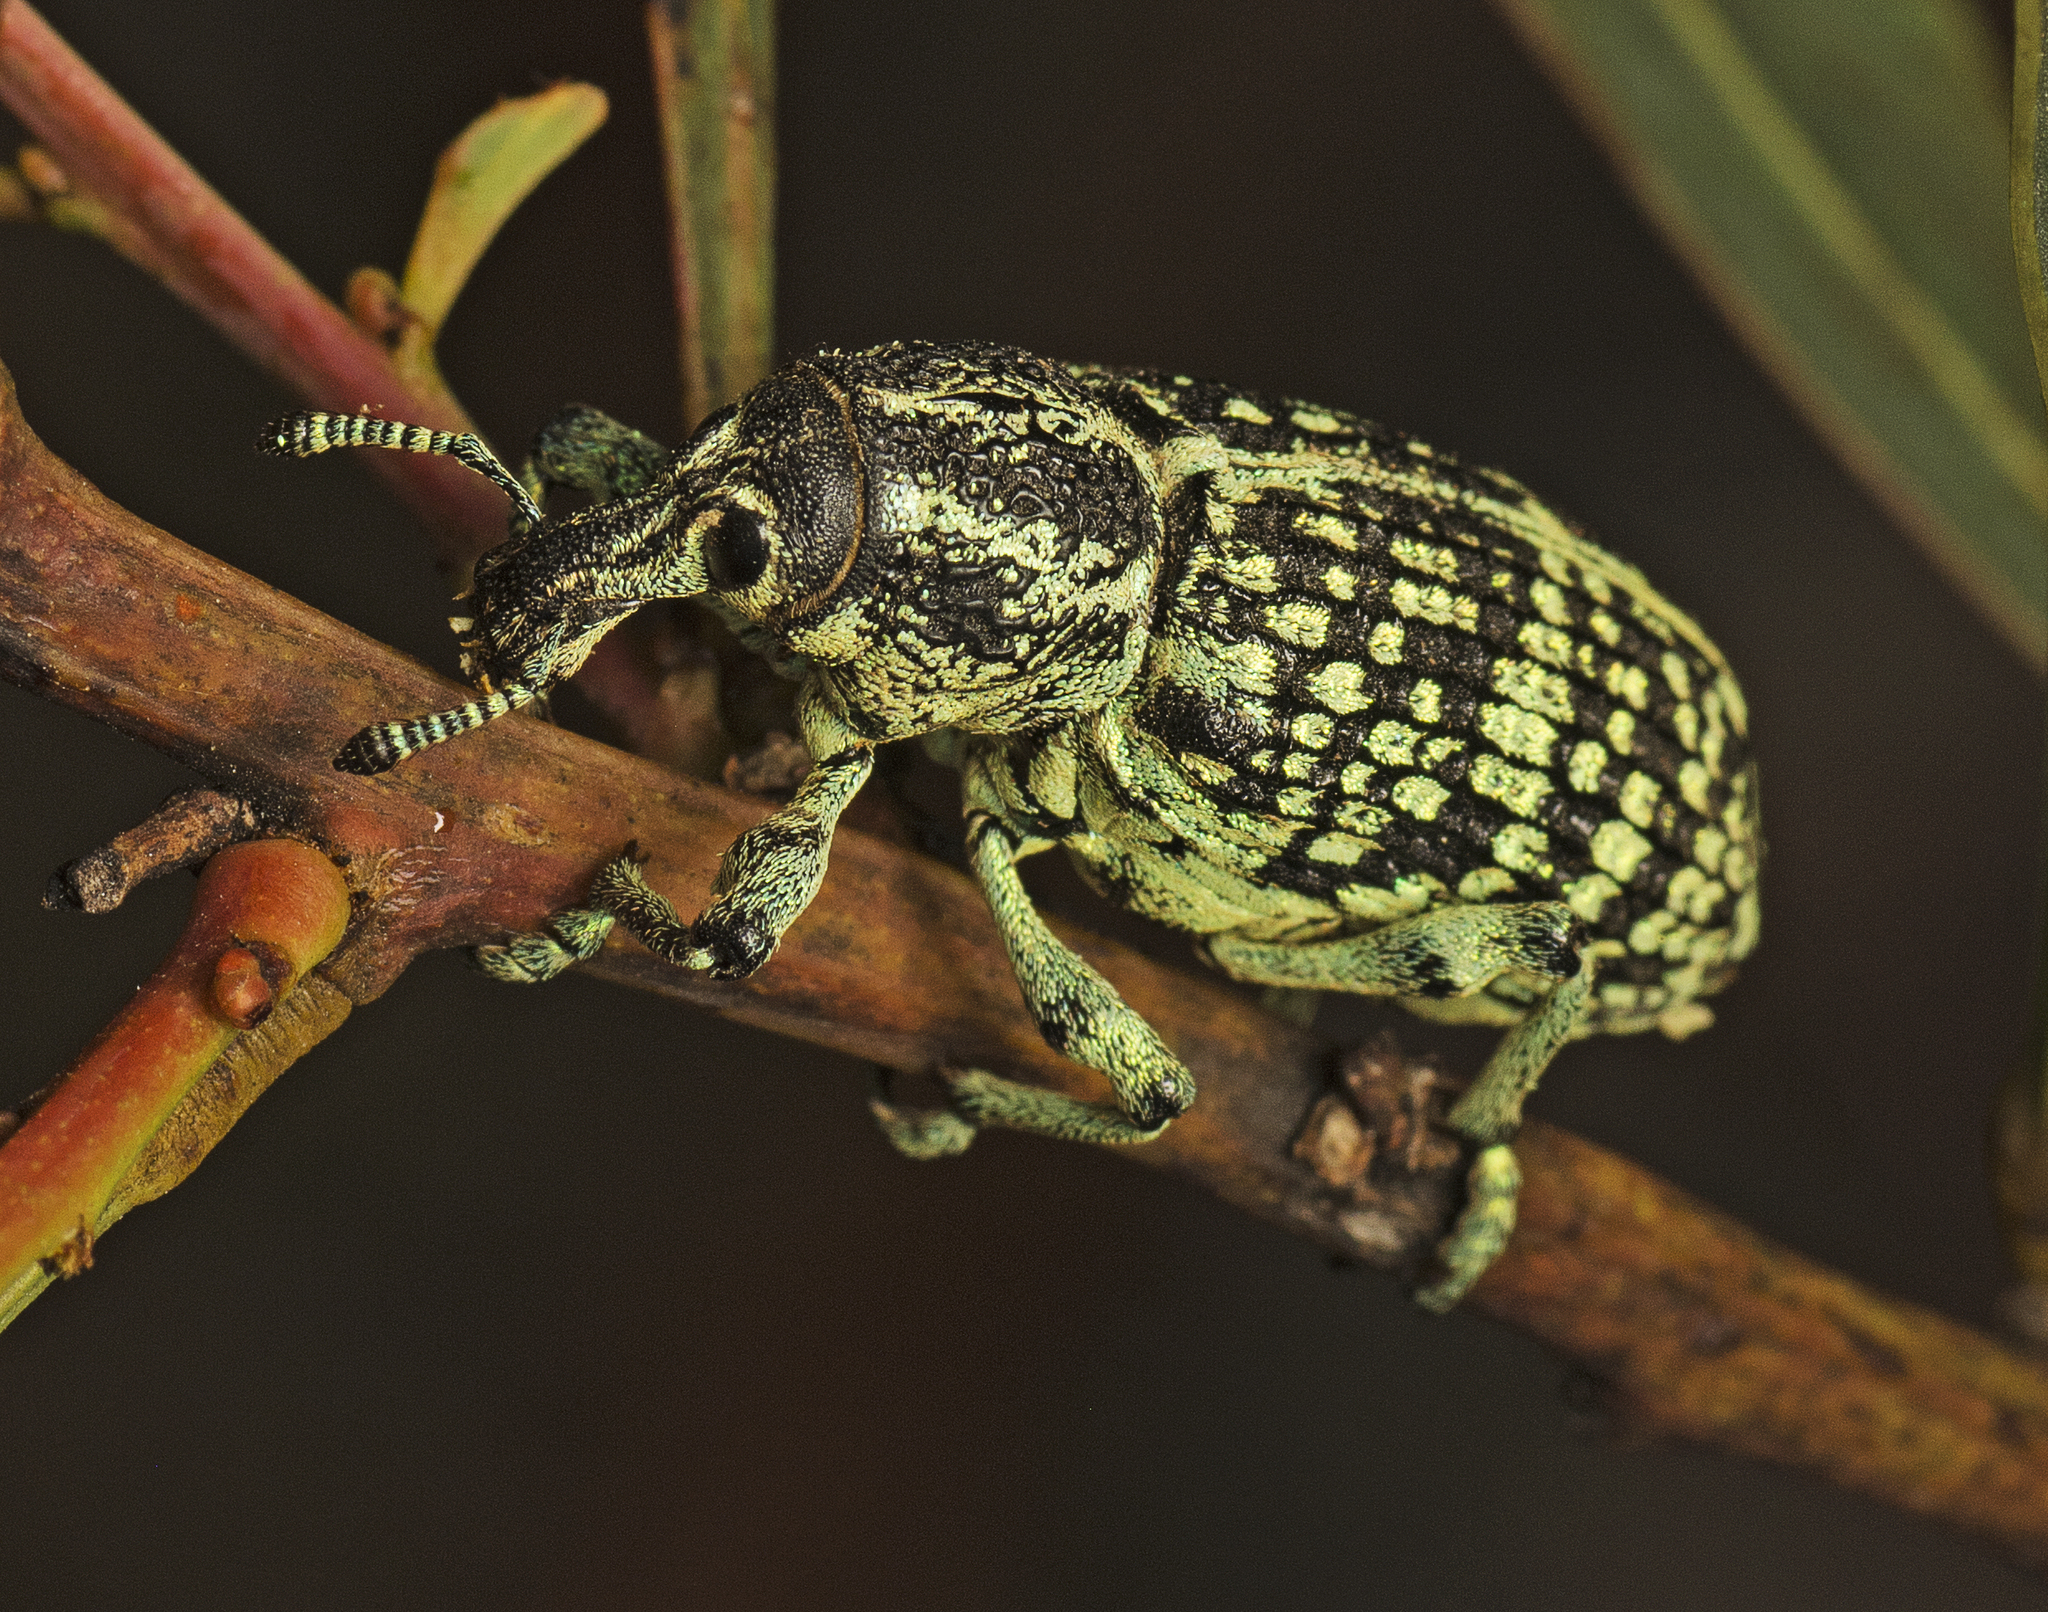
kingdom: Animalia
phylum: Arthropoda
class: Insecta
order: Coleoptera
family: Curculionidae
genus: Chrysolopus
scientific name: Chrysolopus spectabilis
